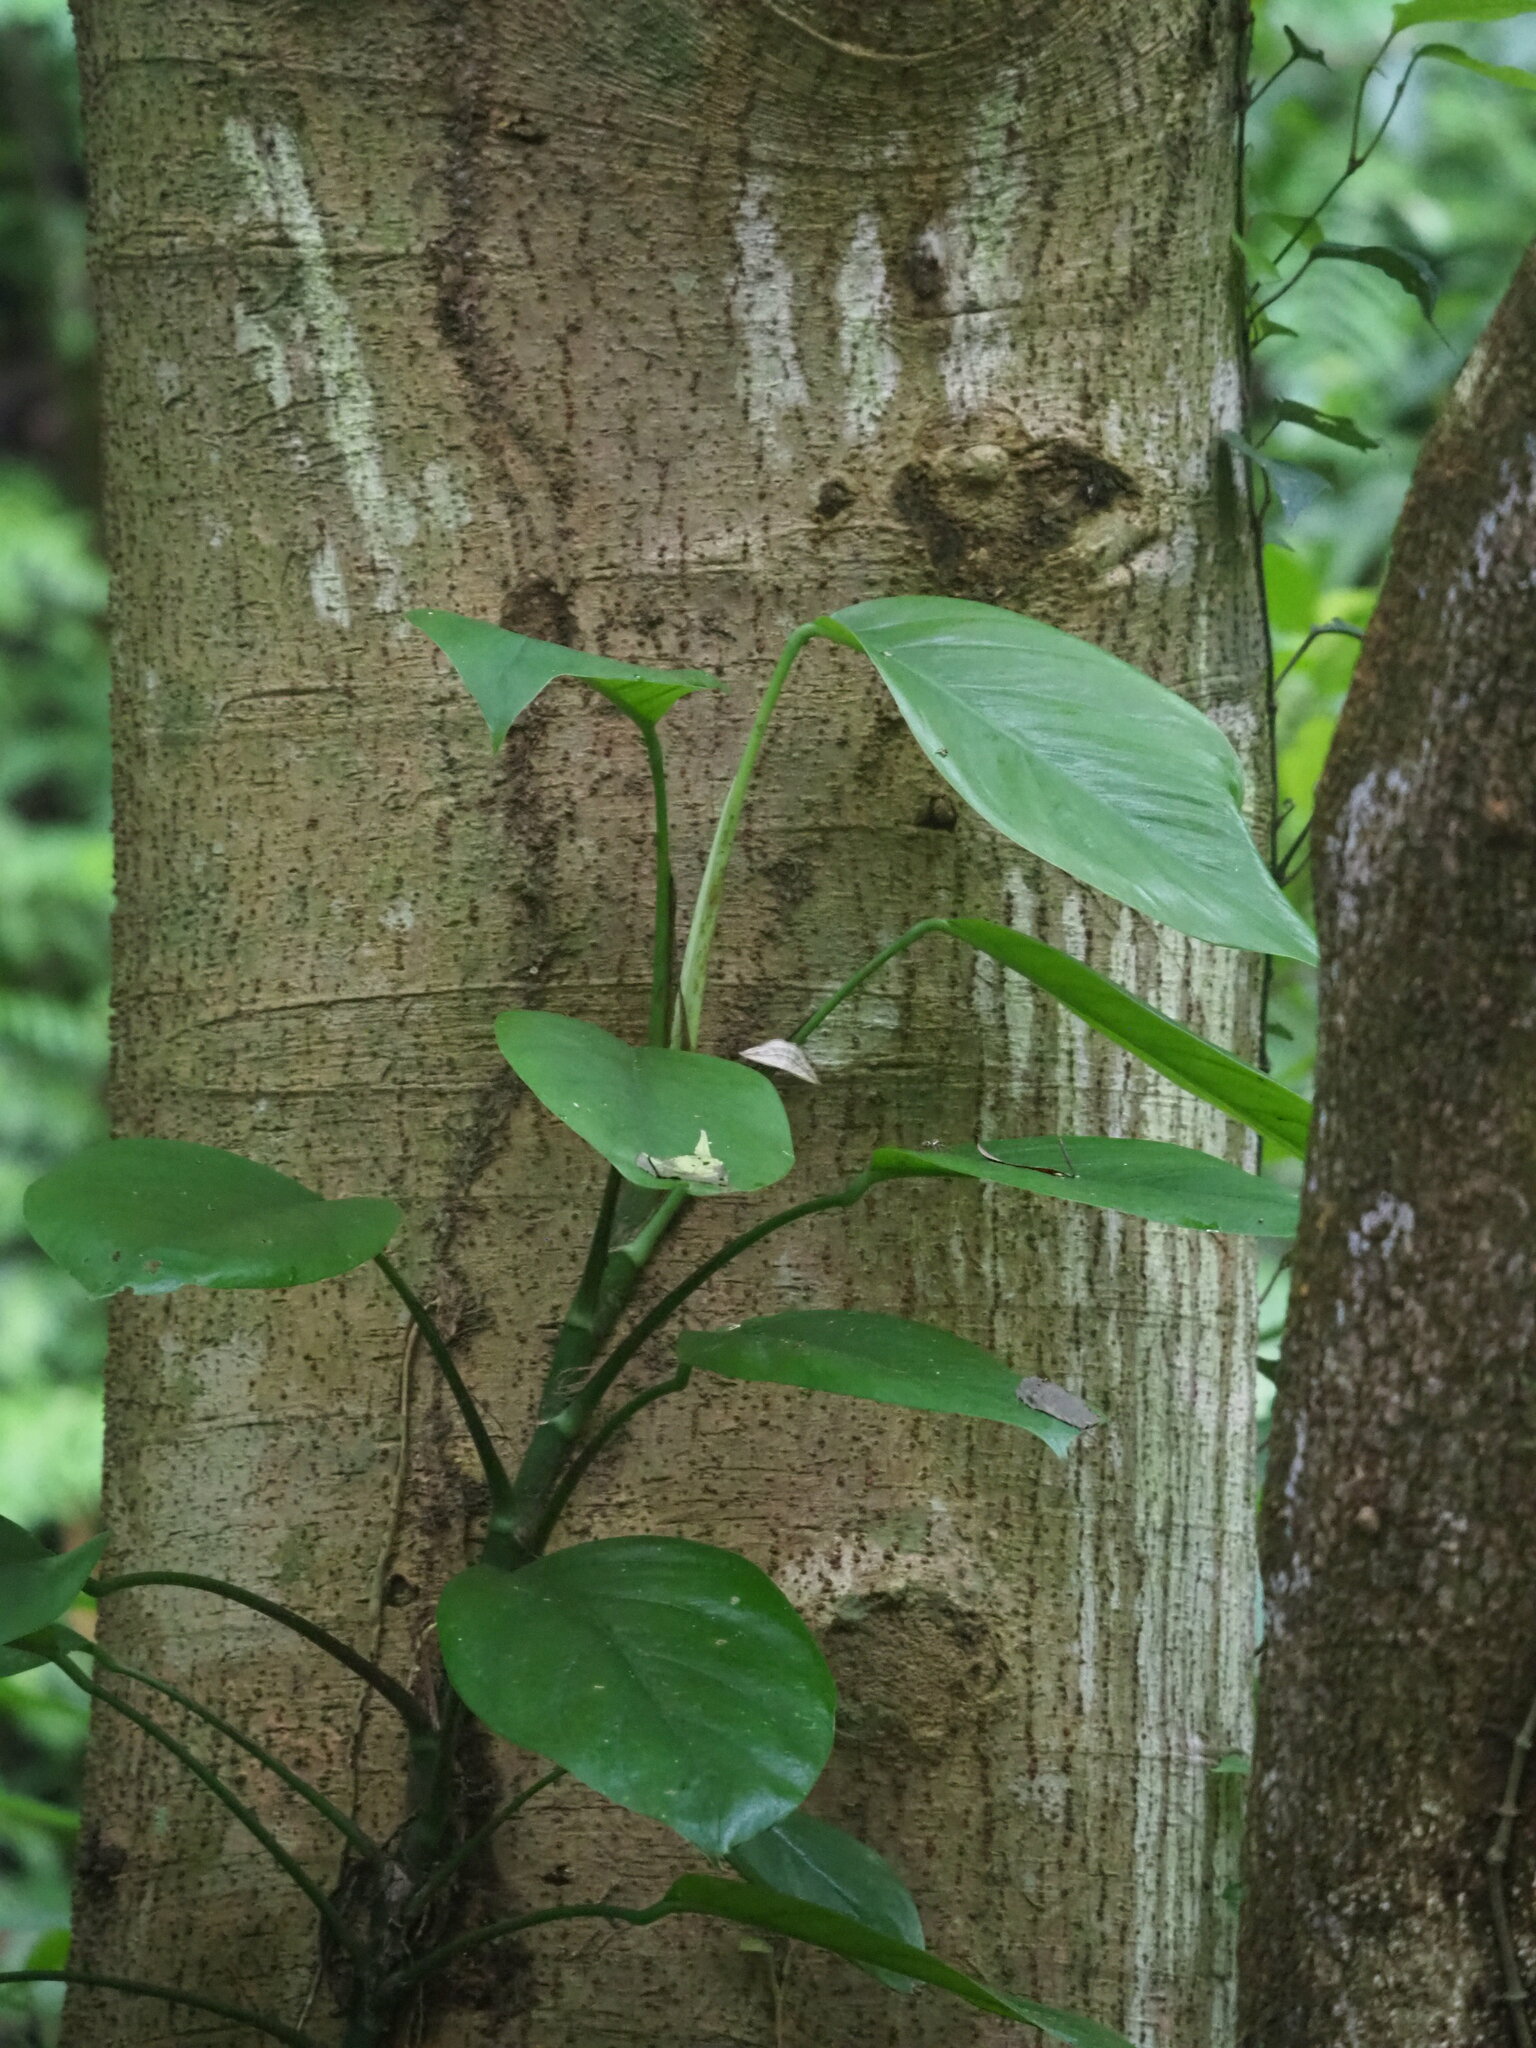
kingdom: Plantae
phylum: Tracheophyta
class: Liliopsida
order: Alismatales
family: Araceae
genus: Epipremnum
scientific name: Epipremnum pinnatum
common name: Centipede tongavine
